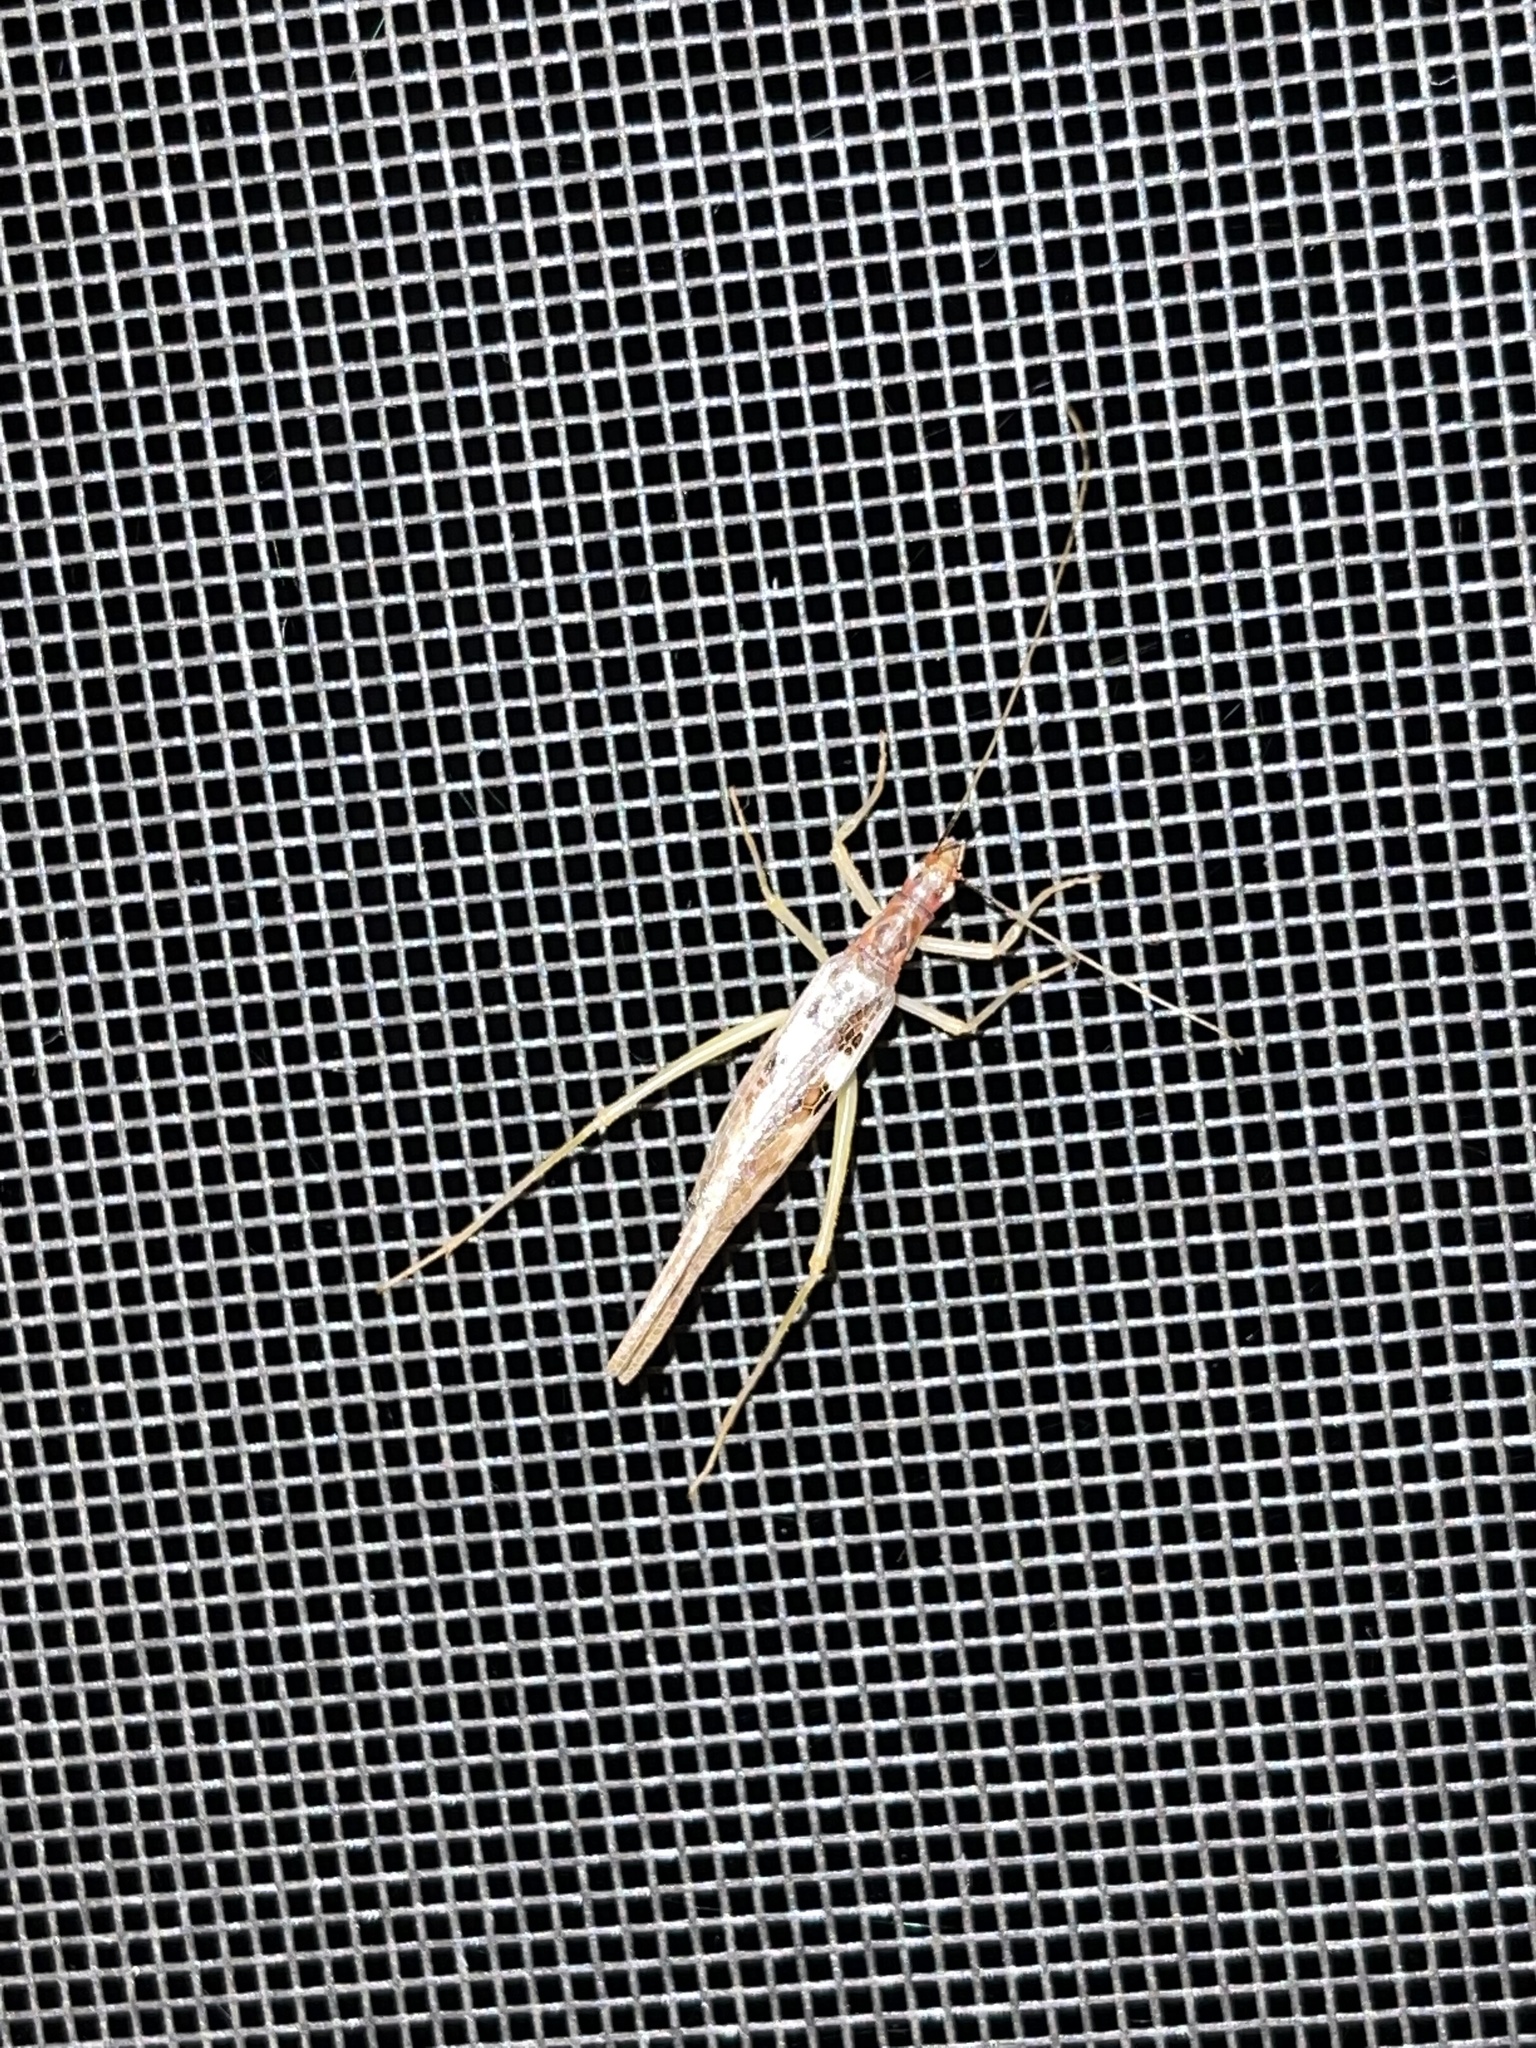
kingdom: Animalia
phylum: Arthropoda
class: Insecta
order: Orthoptera
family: Gryllidae
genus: Neoxabea
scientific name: Neoxabea bipunctata
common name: Two-spotted tree cricket
